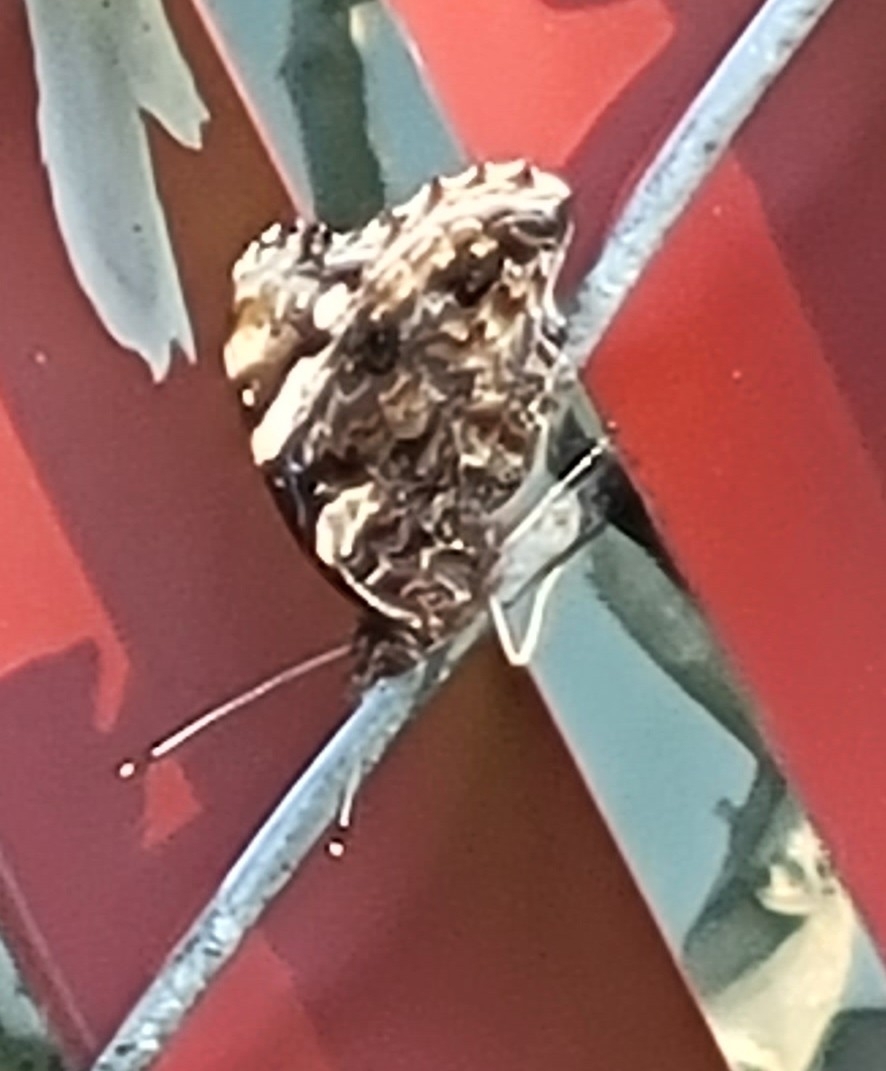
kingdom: Animalia
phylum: Arthropoda
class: Insecta
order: Lepidoptera
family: Nymphalidae
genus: Vanessa
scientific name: Vanessa atalanta
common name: Red admiral
